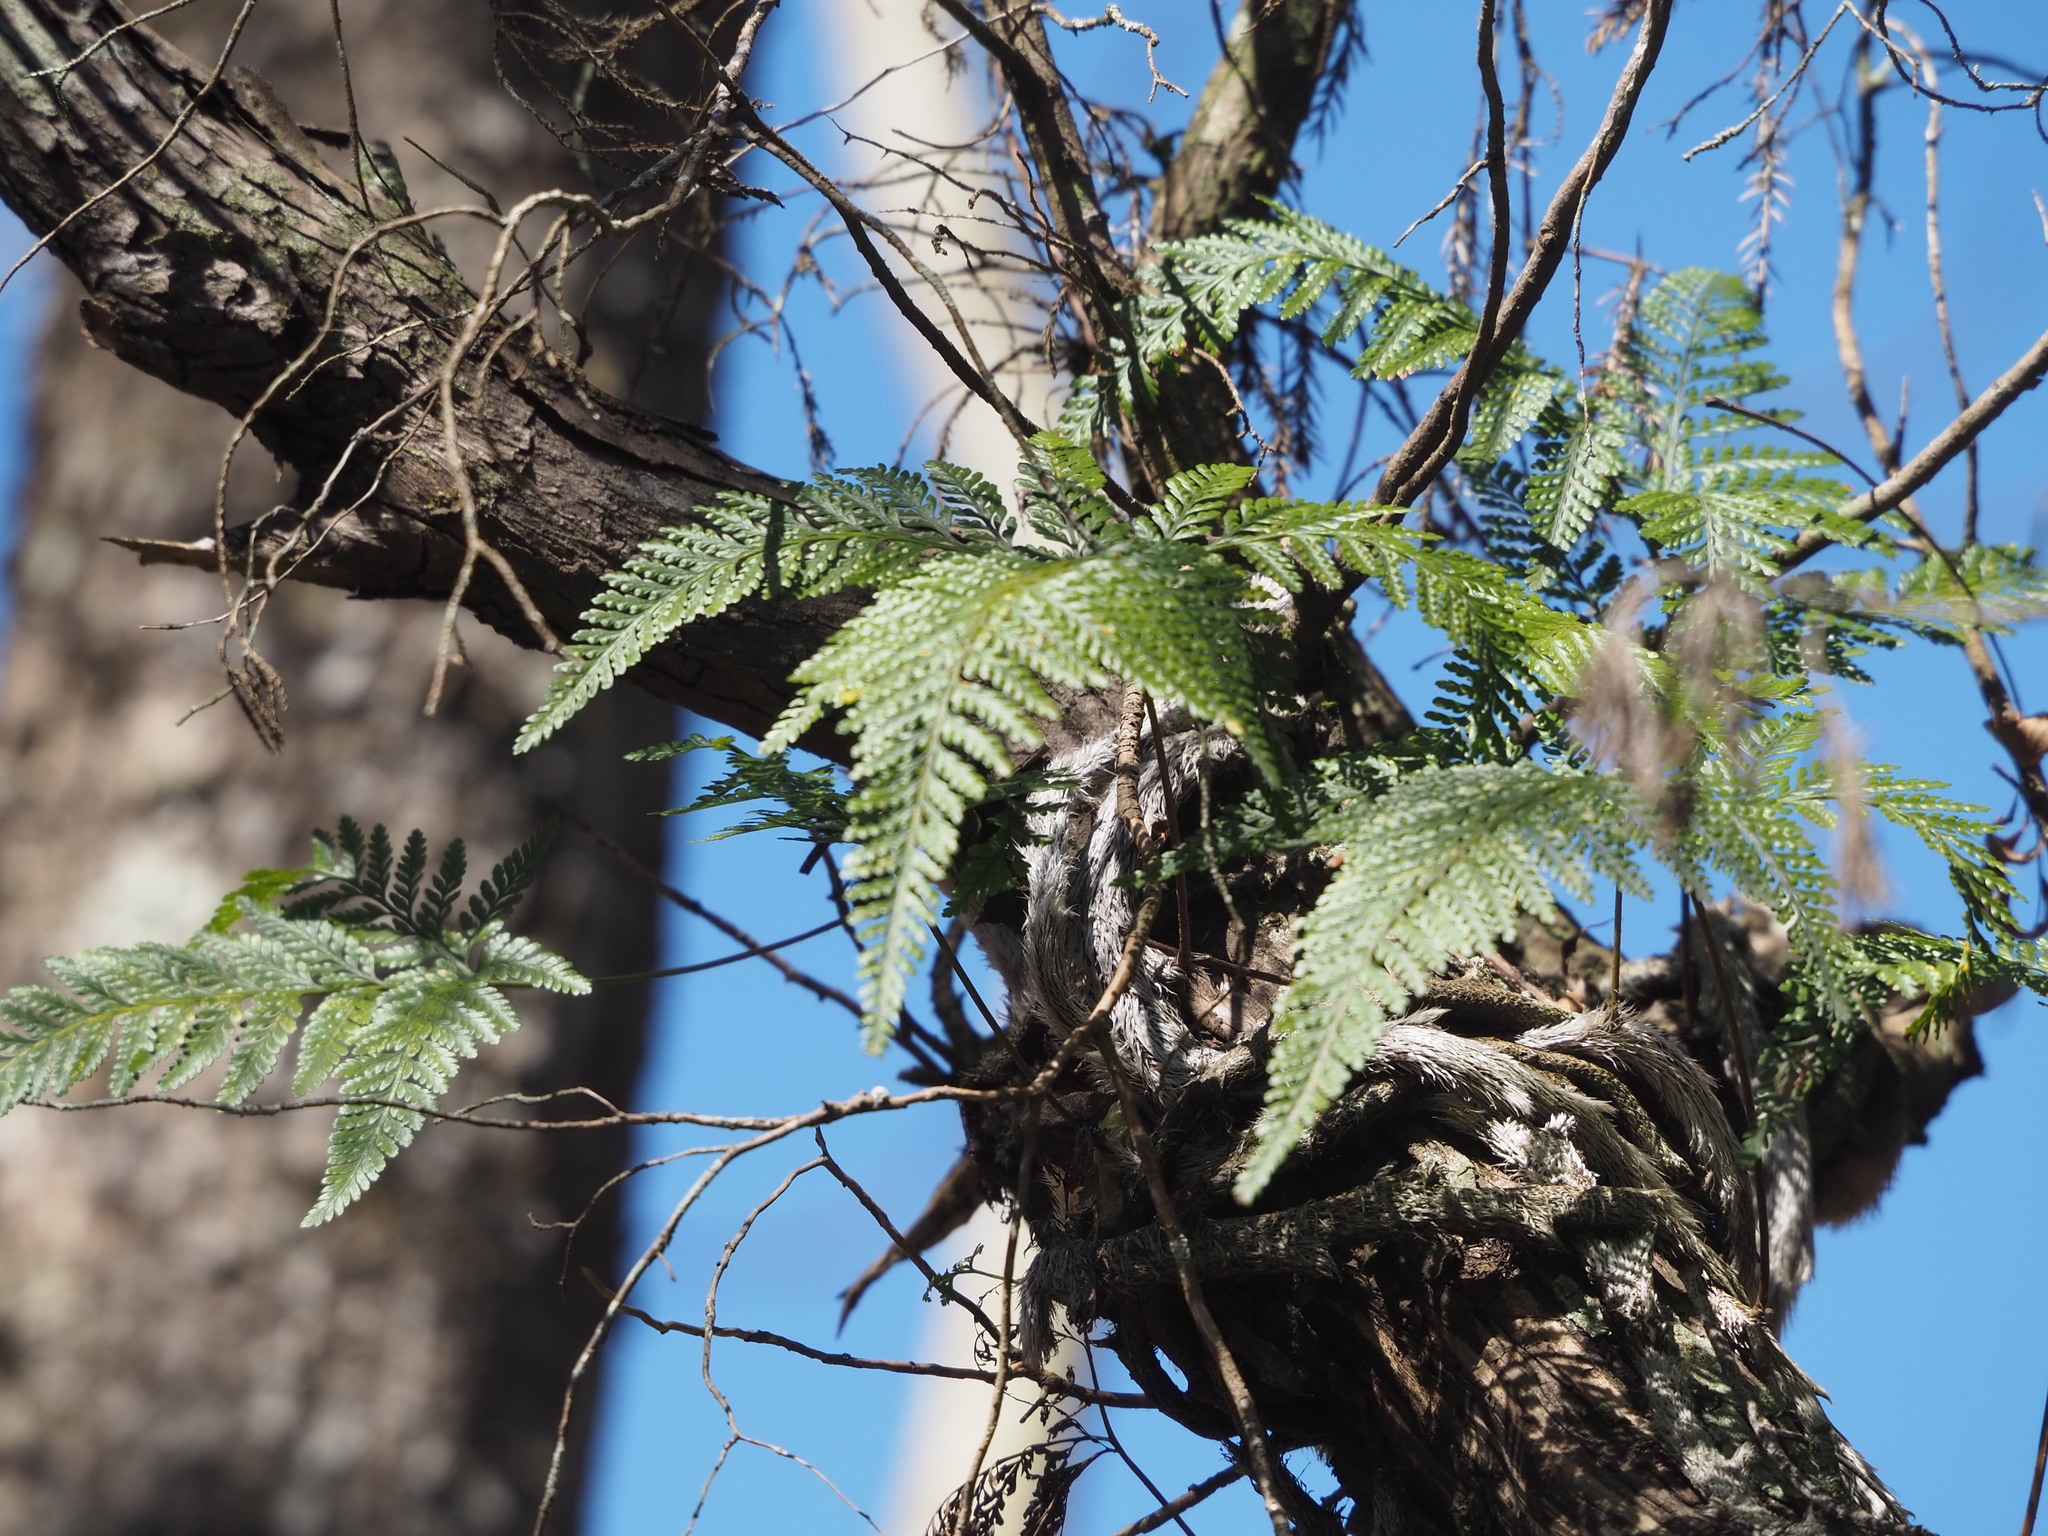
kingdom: Plantae
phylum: Tracheophyta
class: Polypodiopsida
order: Polypodiales
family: Davalliaceae
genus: Davallia
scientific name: Davallia griffithiana
